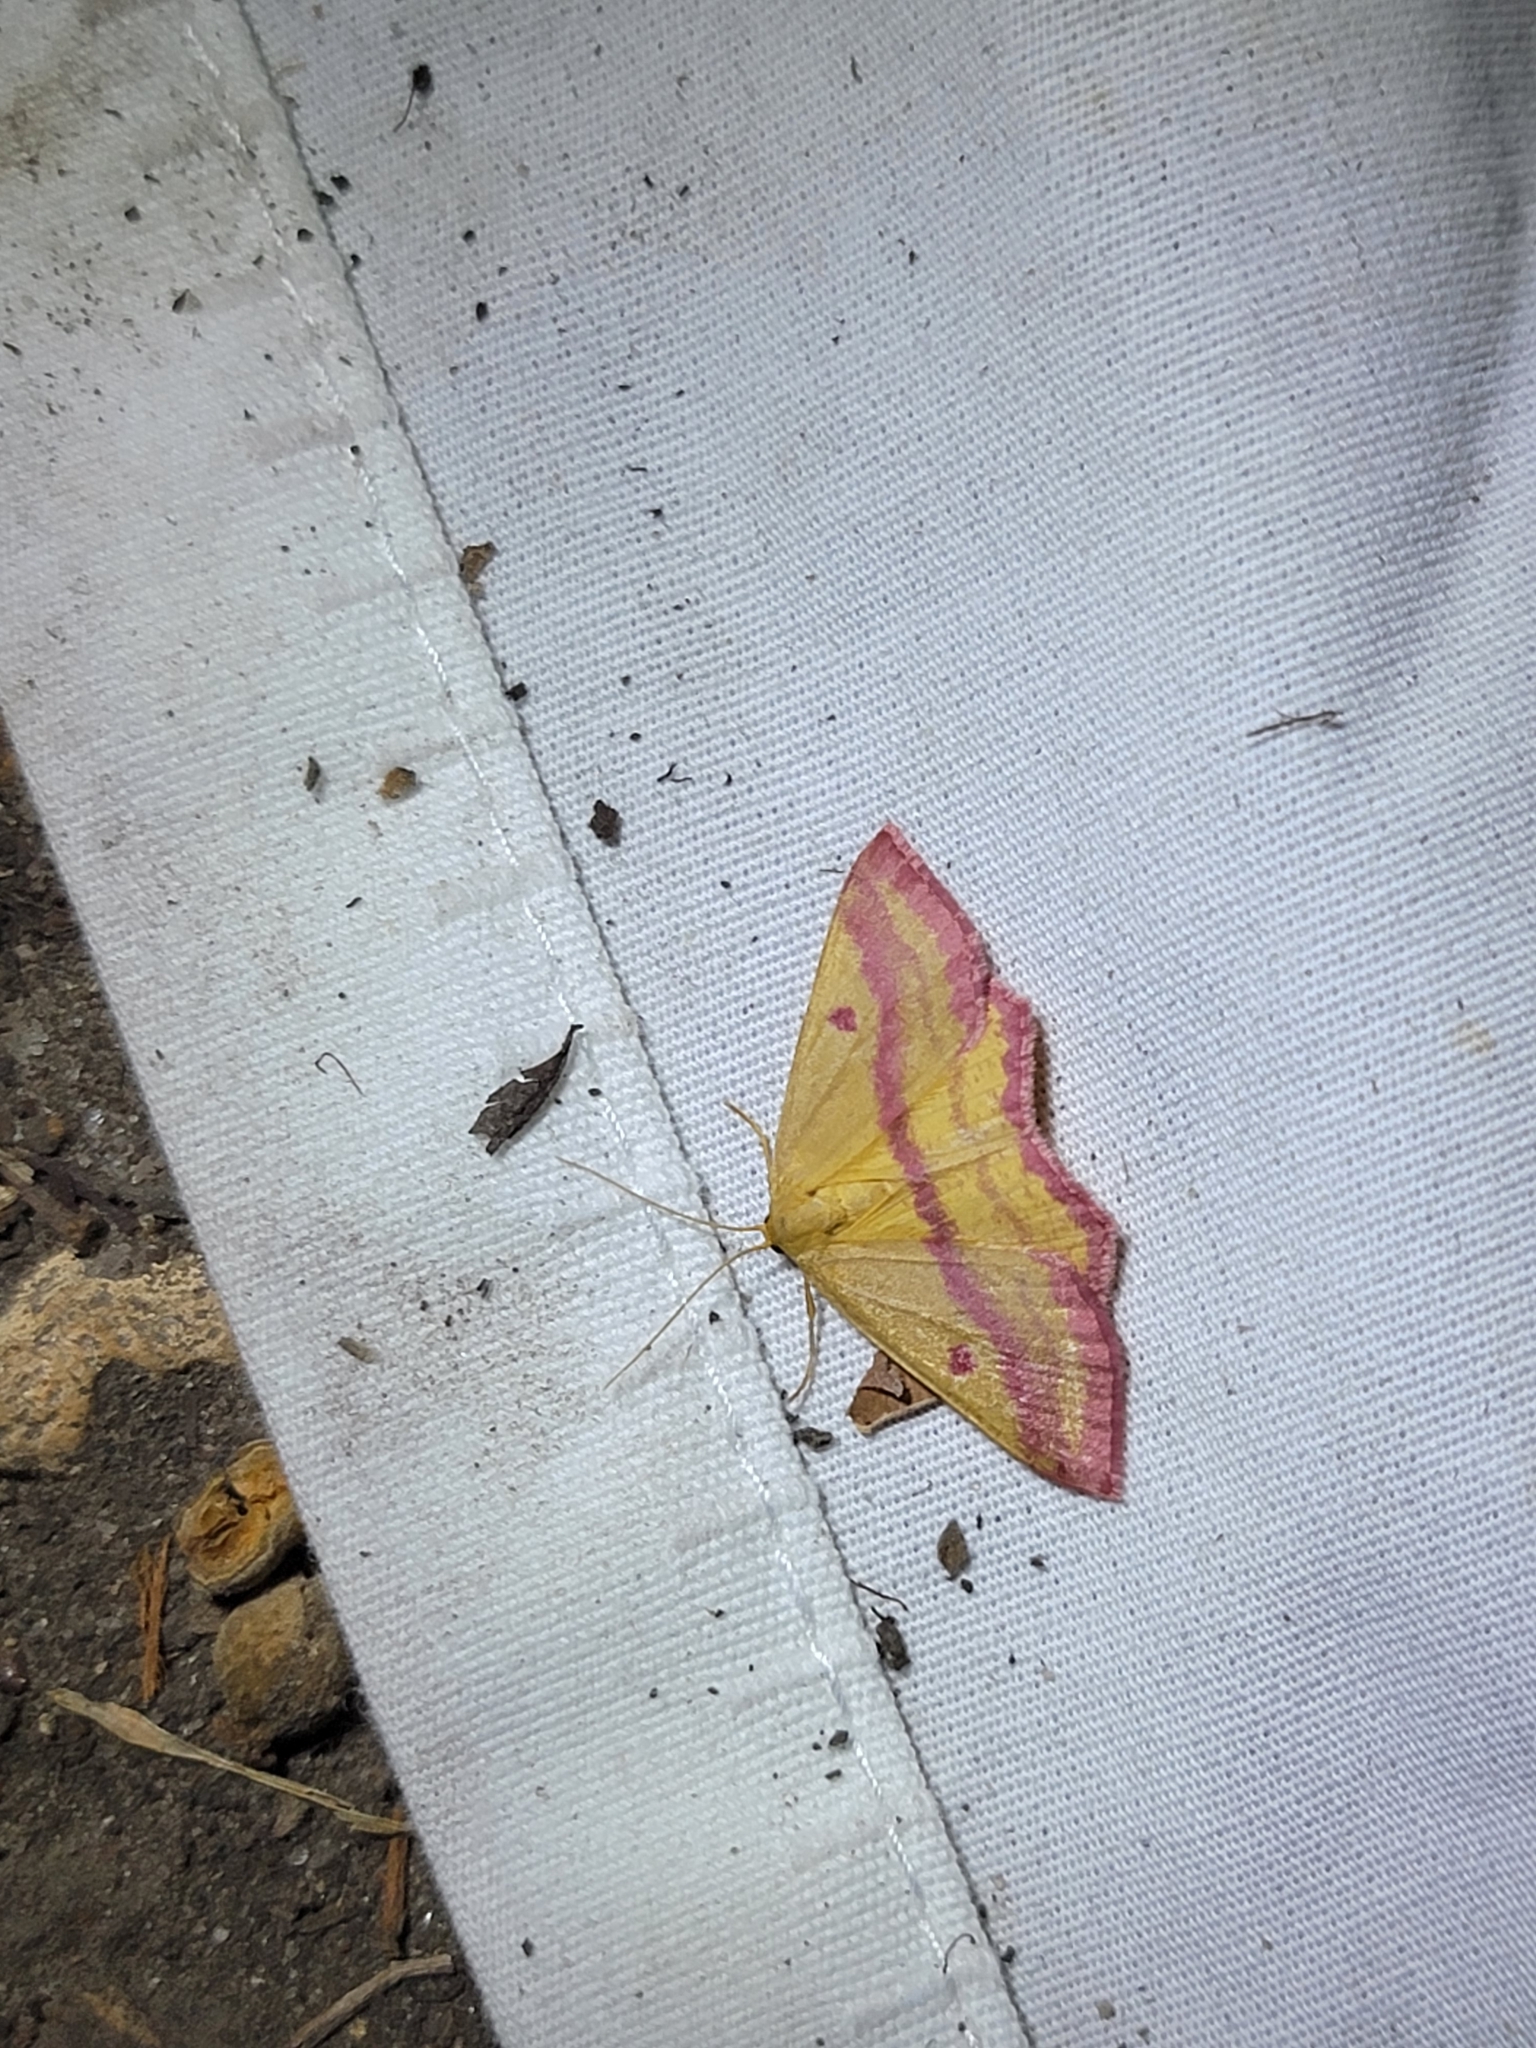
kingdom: Animalia
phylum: Arthropoda
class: Insecta
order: Lepidoptera
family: Geometridae
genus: Haematopis
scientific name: Haematopis grataria
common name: Chickweed geometer
